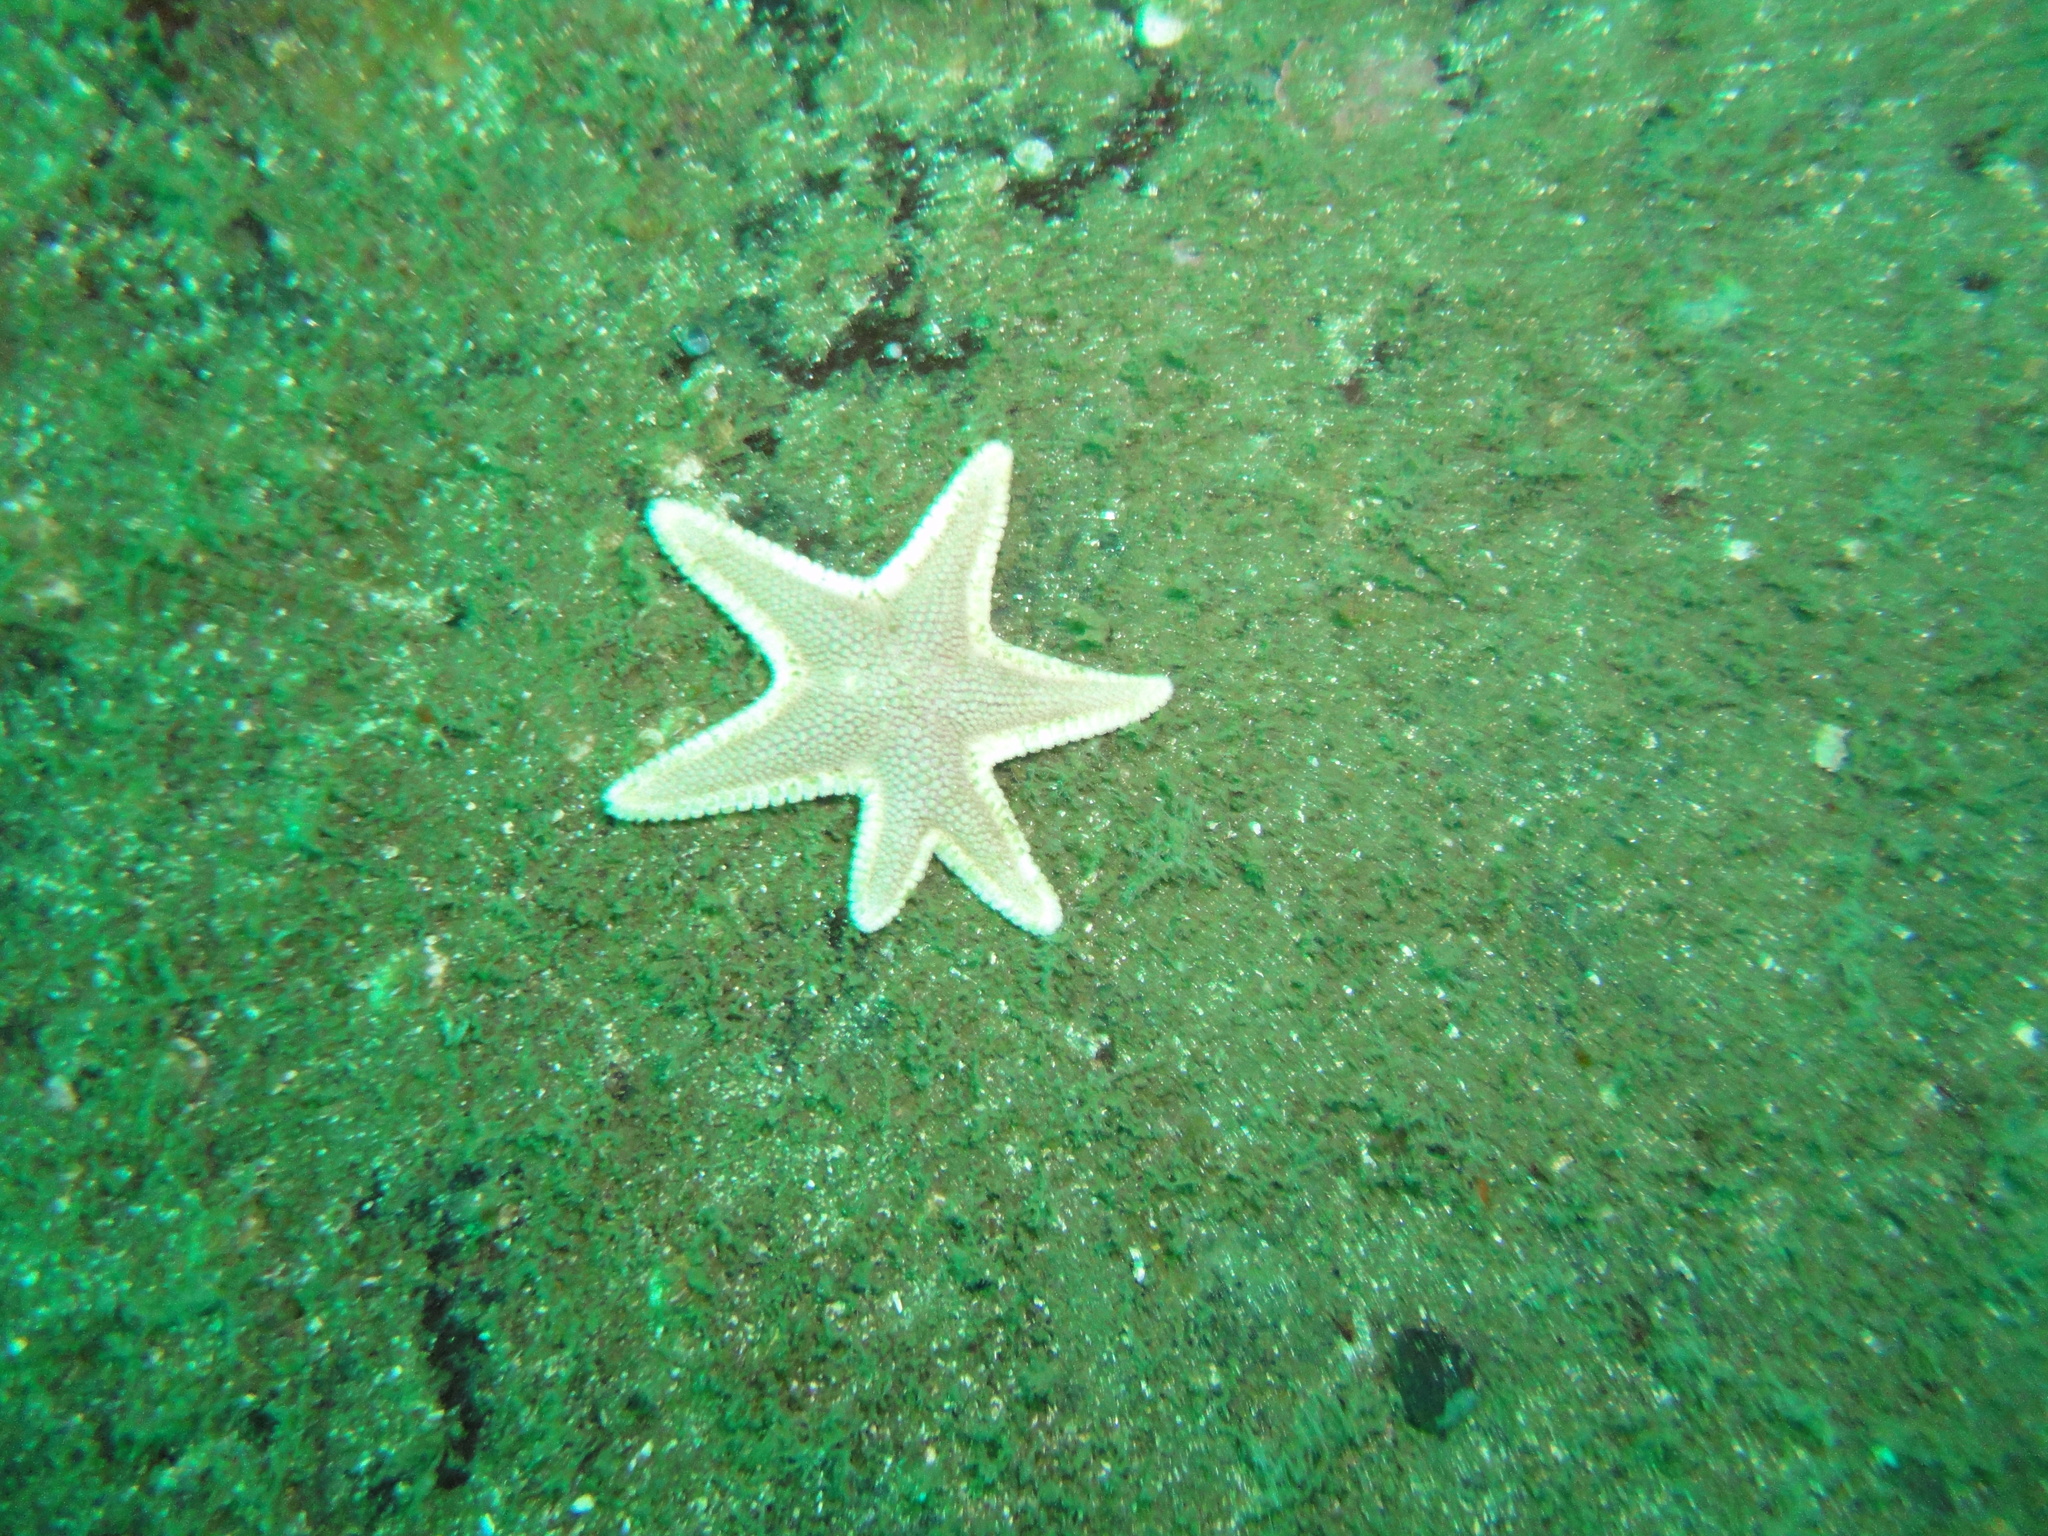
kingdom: Animalia
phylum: Echinodermata
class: Asteroidea
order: Valvatida
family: Odontasteridae
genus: Odontaster
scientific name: Odontaster penicillatus
